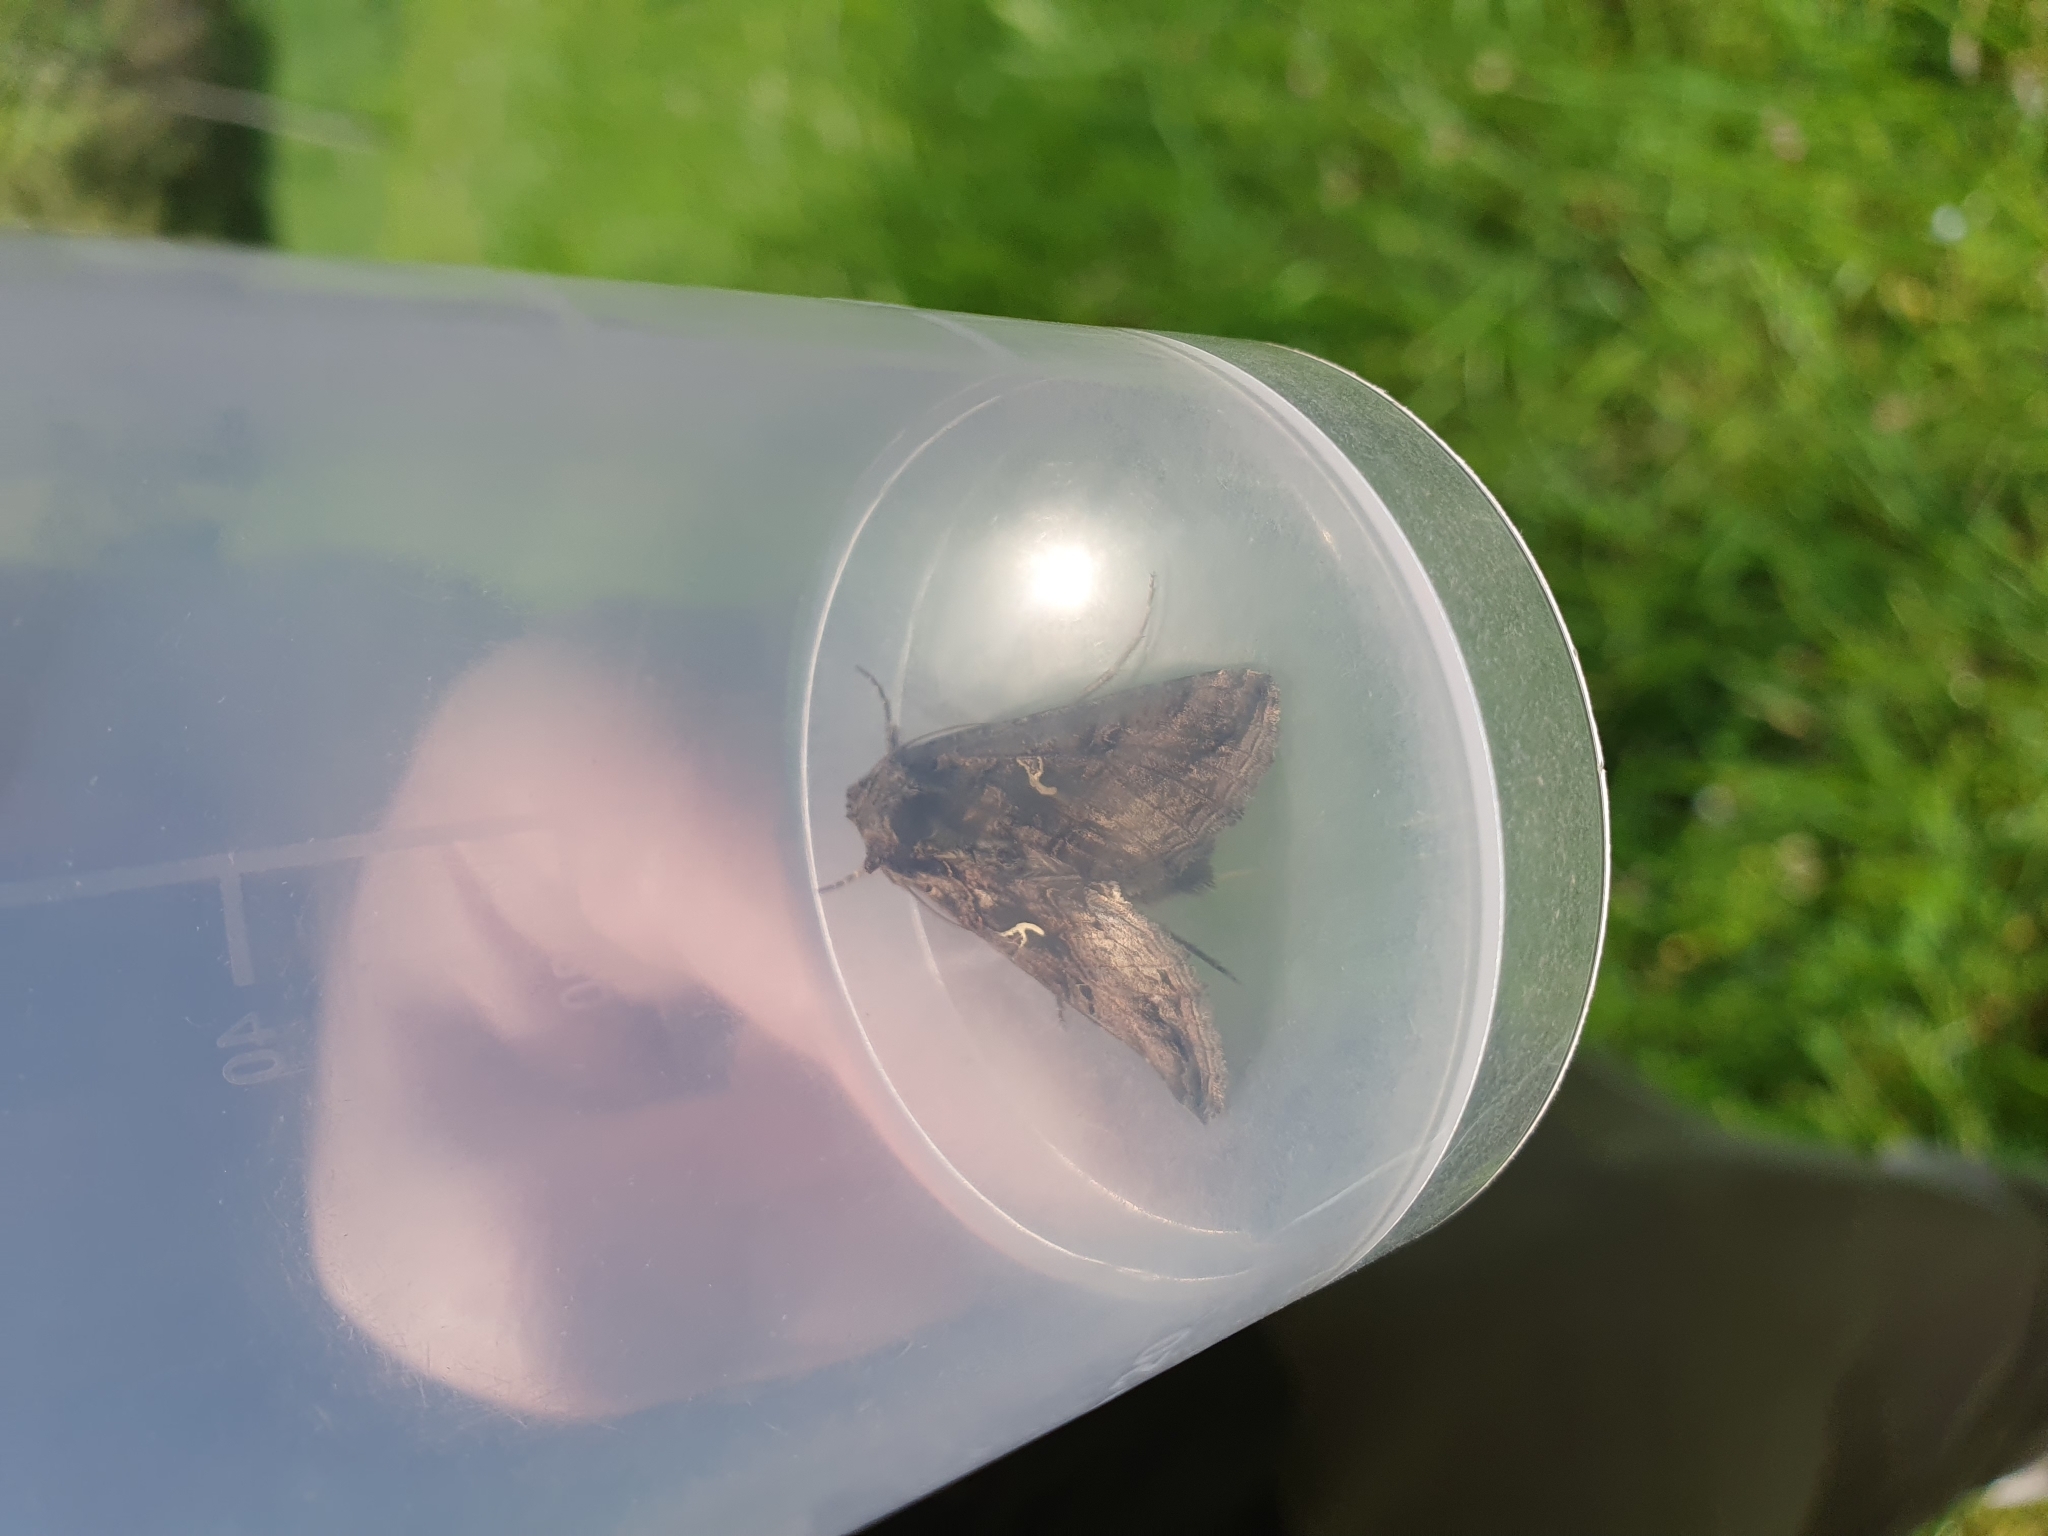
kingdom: Animalia
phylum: Arthropoda
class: Insecta
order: Lepidoptera
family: Noctuidae
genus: Autographa
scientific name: Autographa gamma
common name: Silver y
